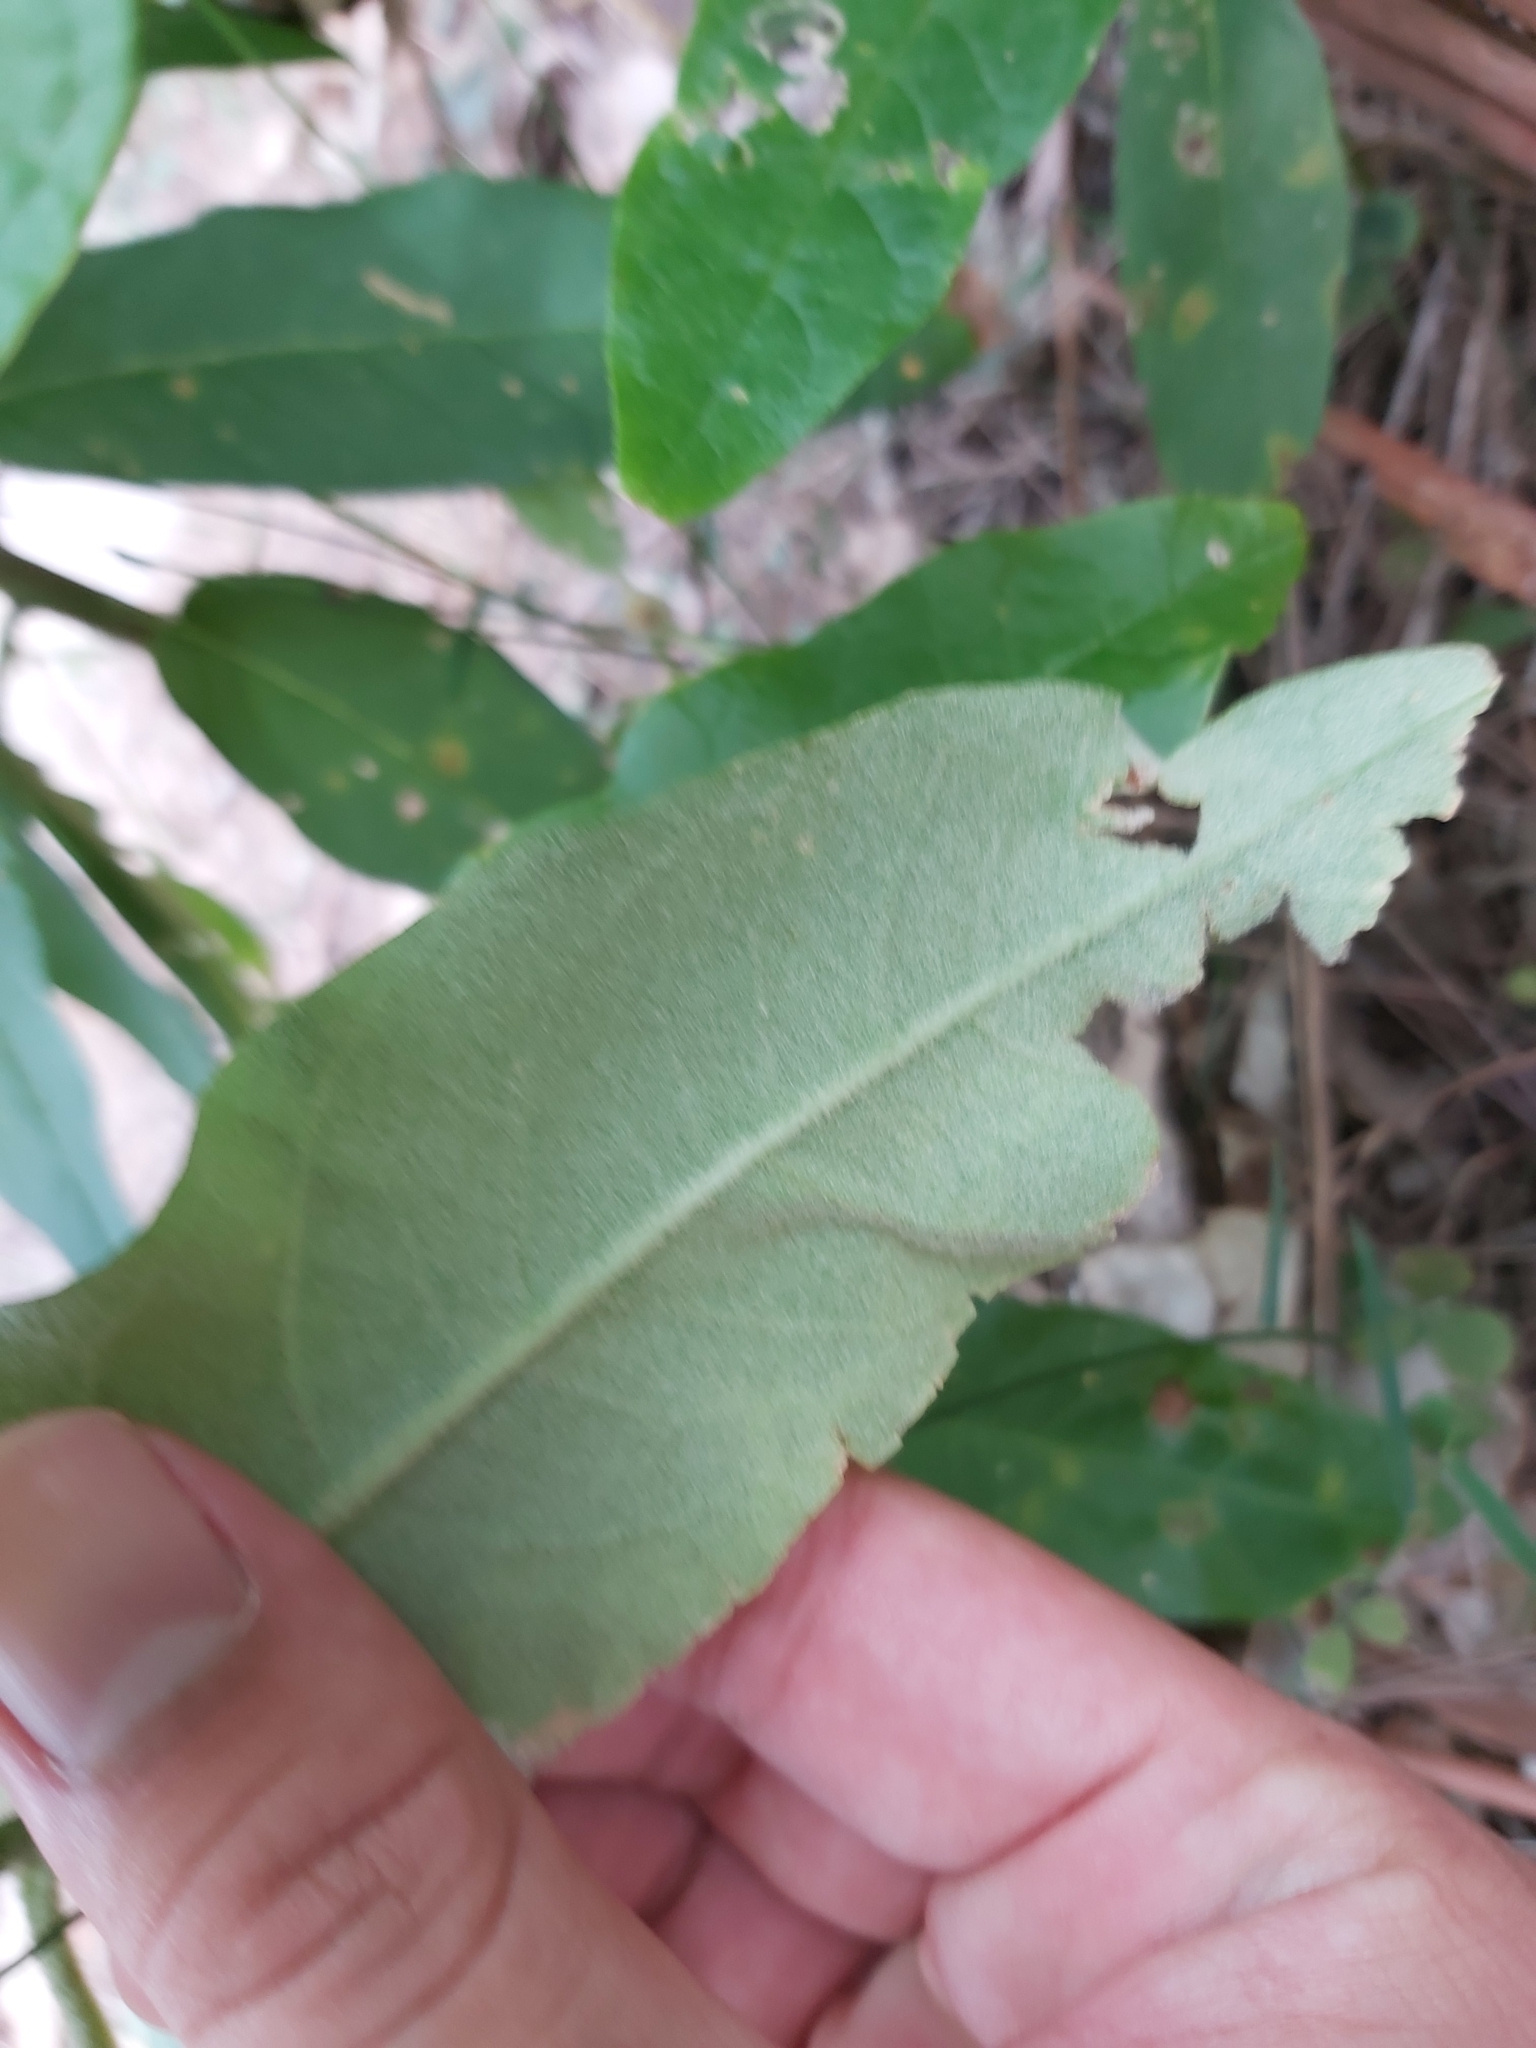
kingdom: Plantae
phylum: Tracheophyta
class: Magnoliopsida
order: Apiales
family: Araliaceae
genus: Astrotricha
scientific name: Astrotricha floccosa
